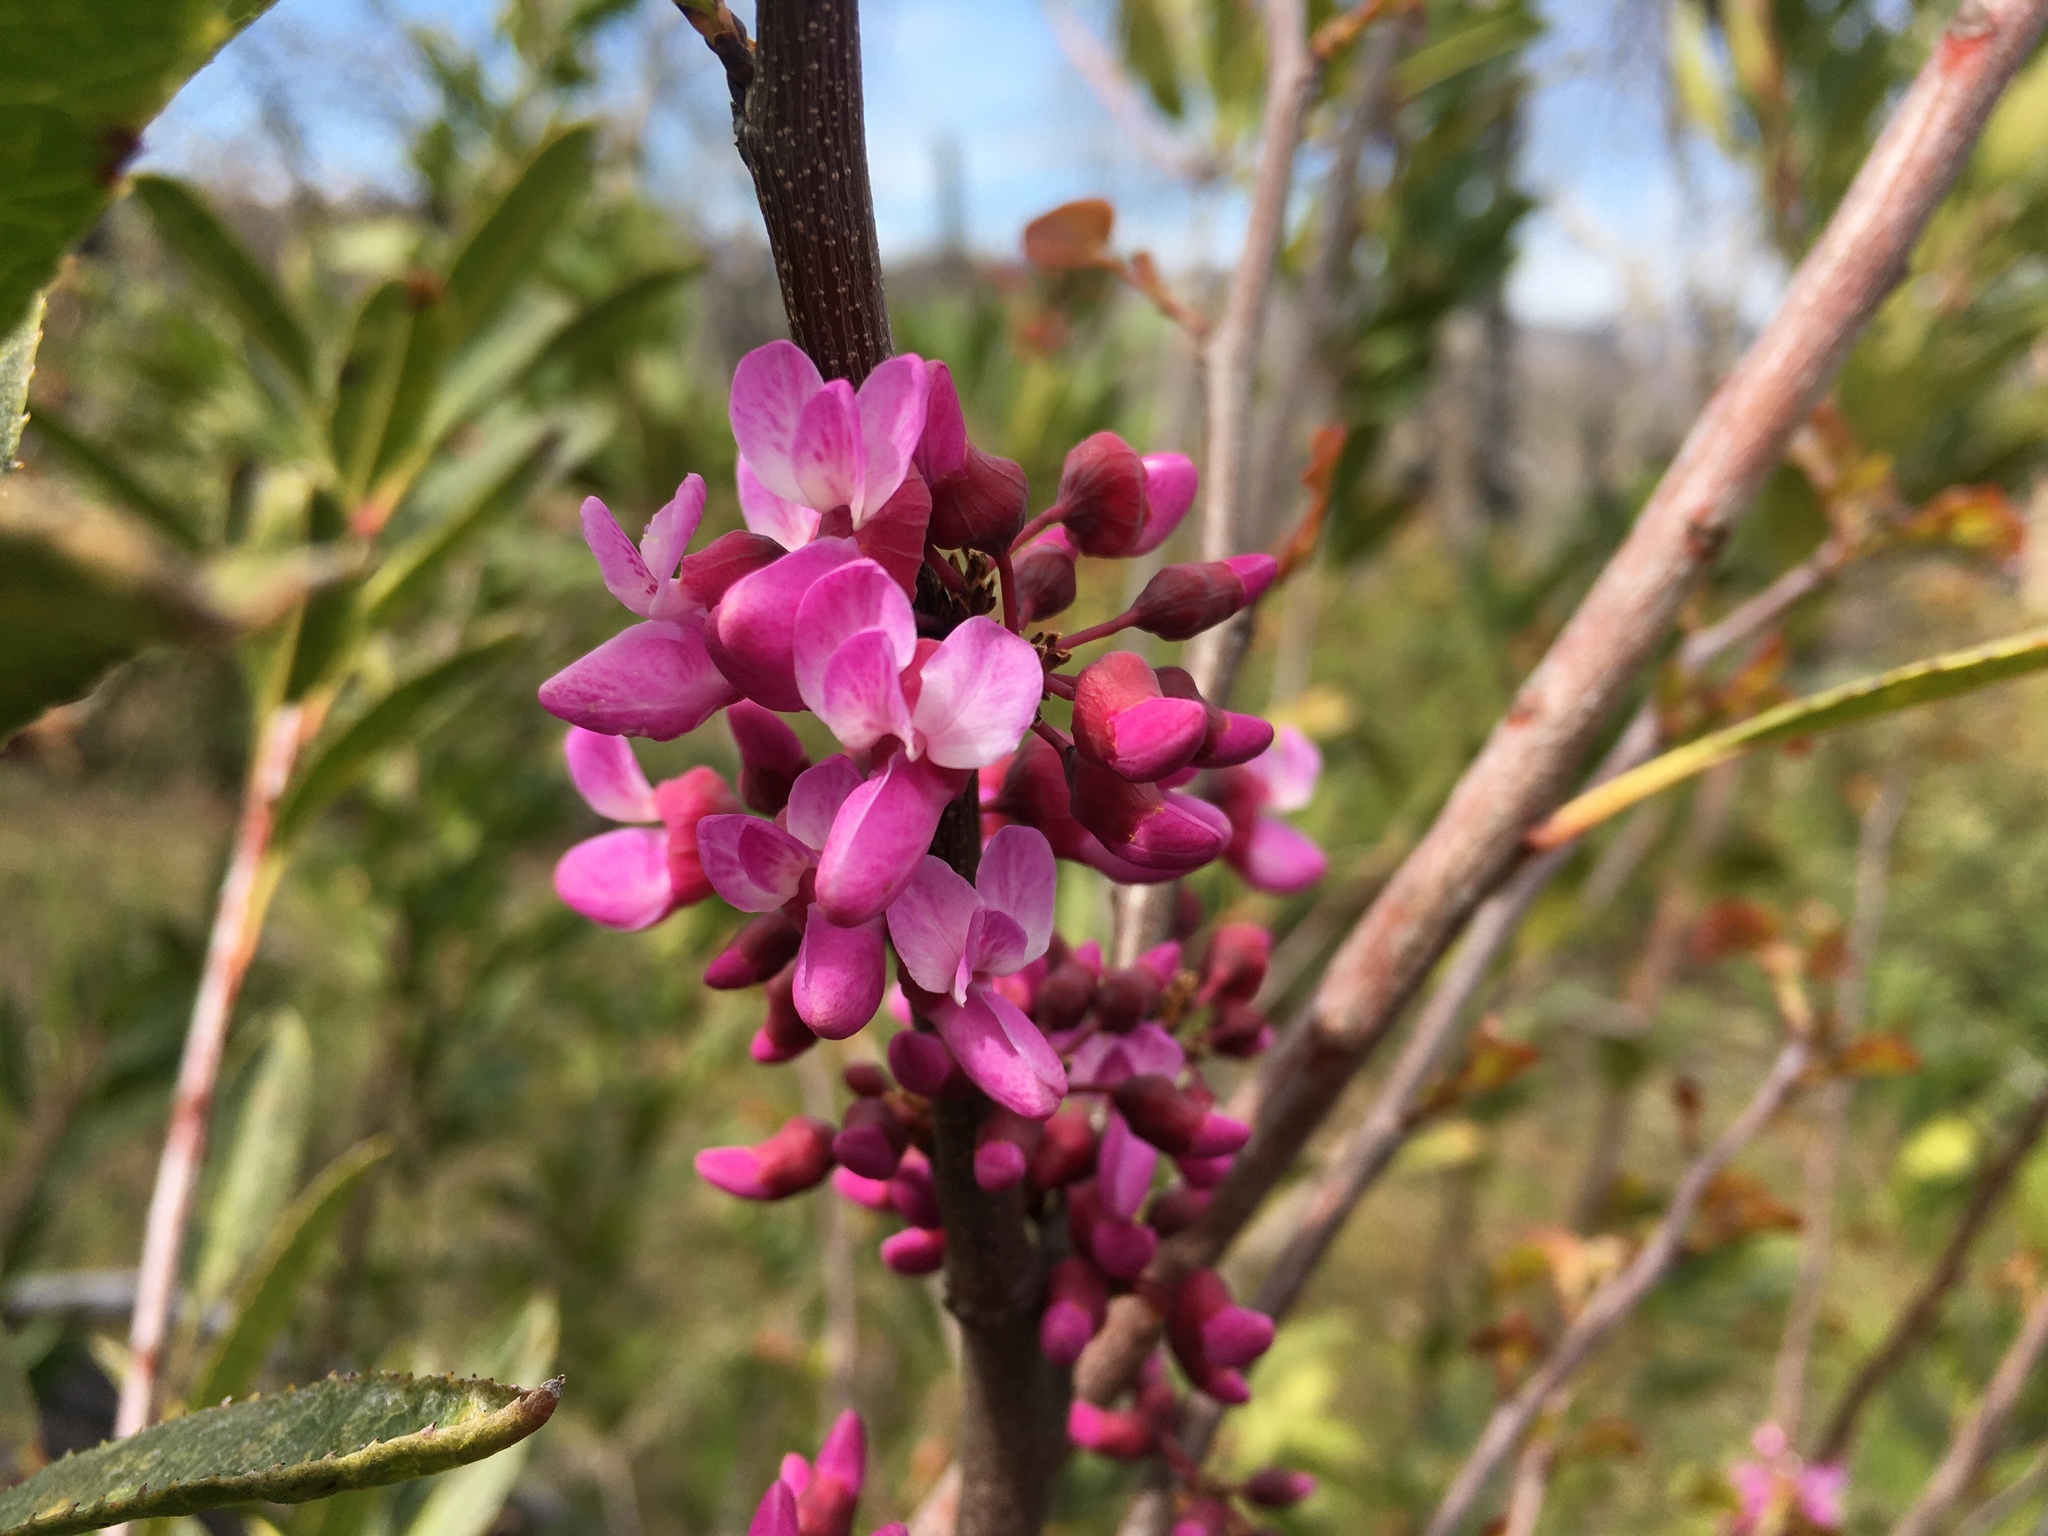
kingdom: Plantae
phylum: Tracheophyta
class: Magnoliopsida
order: Fabales
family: Fabaceae
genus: Cercis
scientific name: Cercis occidentalis
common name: California redbud
